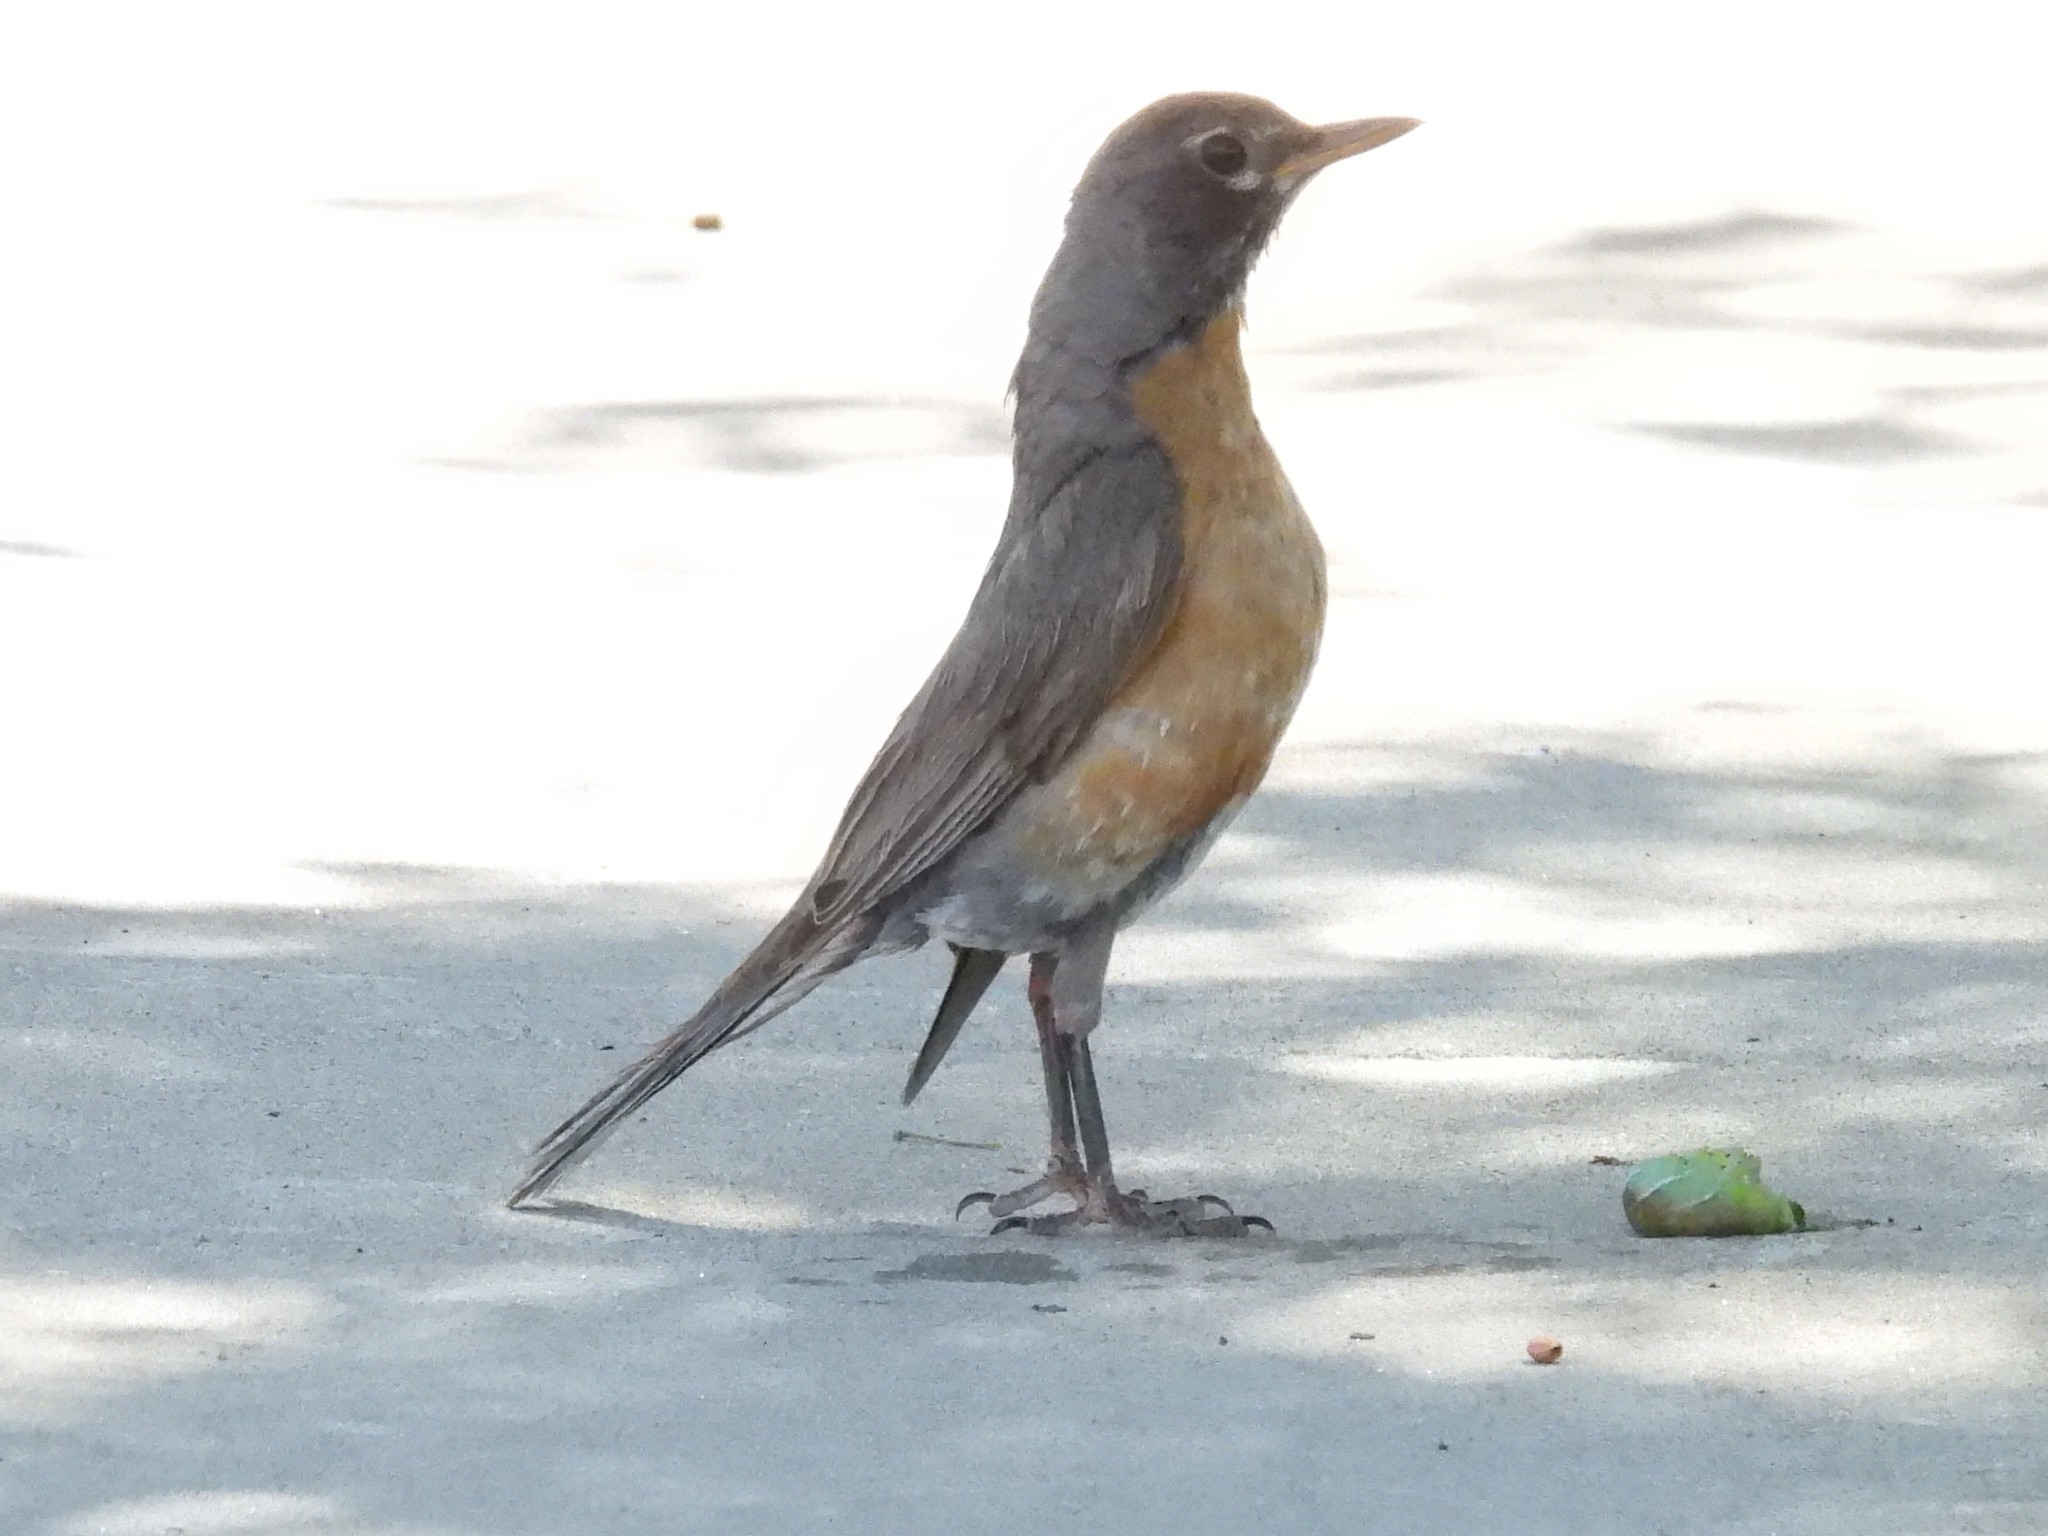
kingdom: Animalia
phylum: Chordata
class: Aves
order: Passeriformes
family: Turdidae
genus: Turdus
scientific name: Turdus migratorius
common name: American robin
